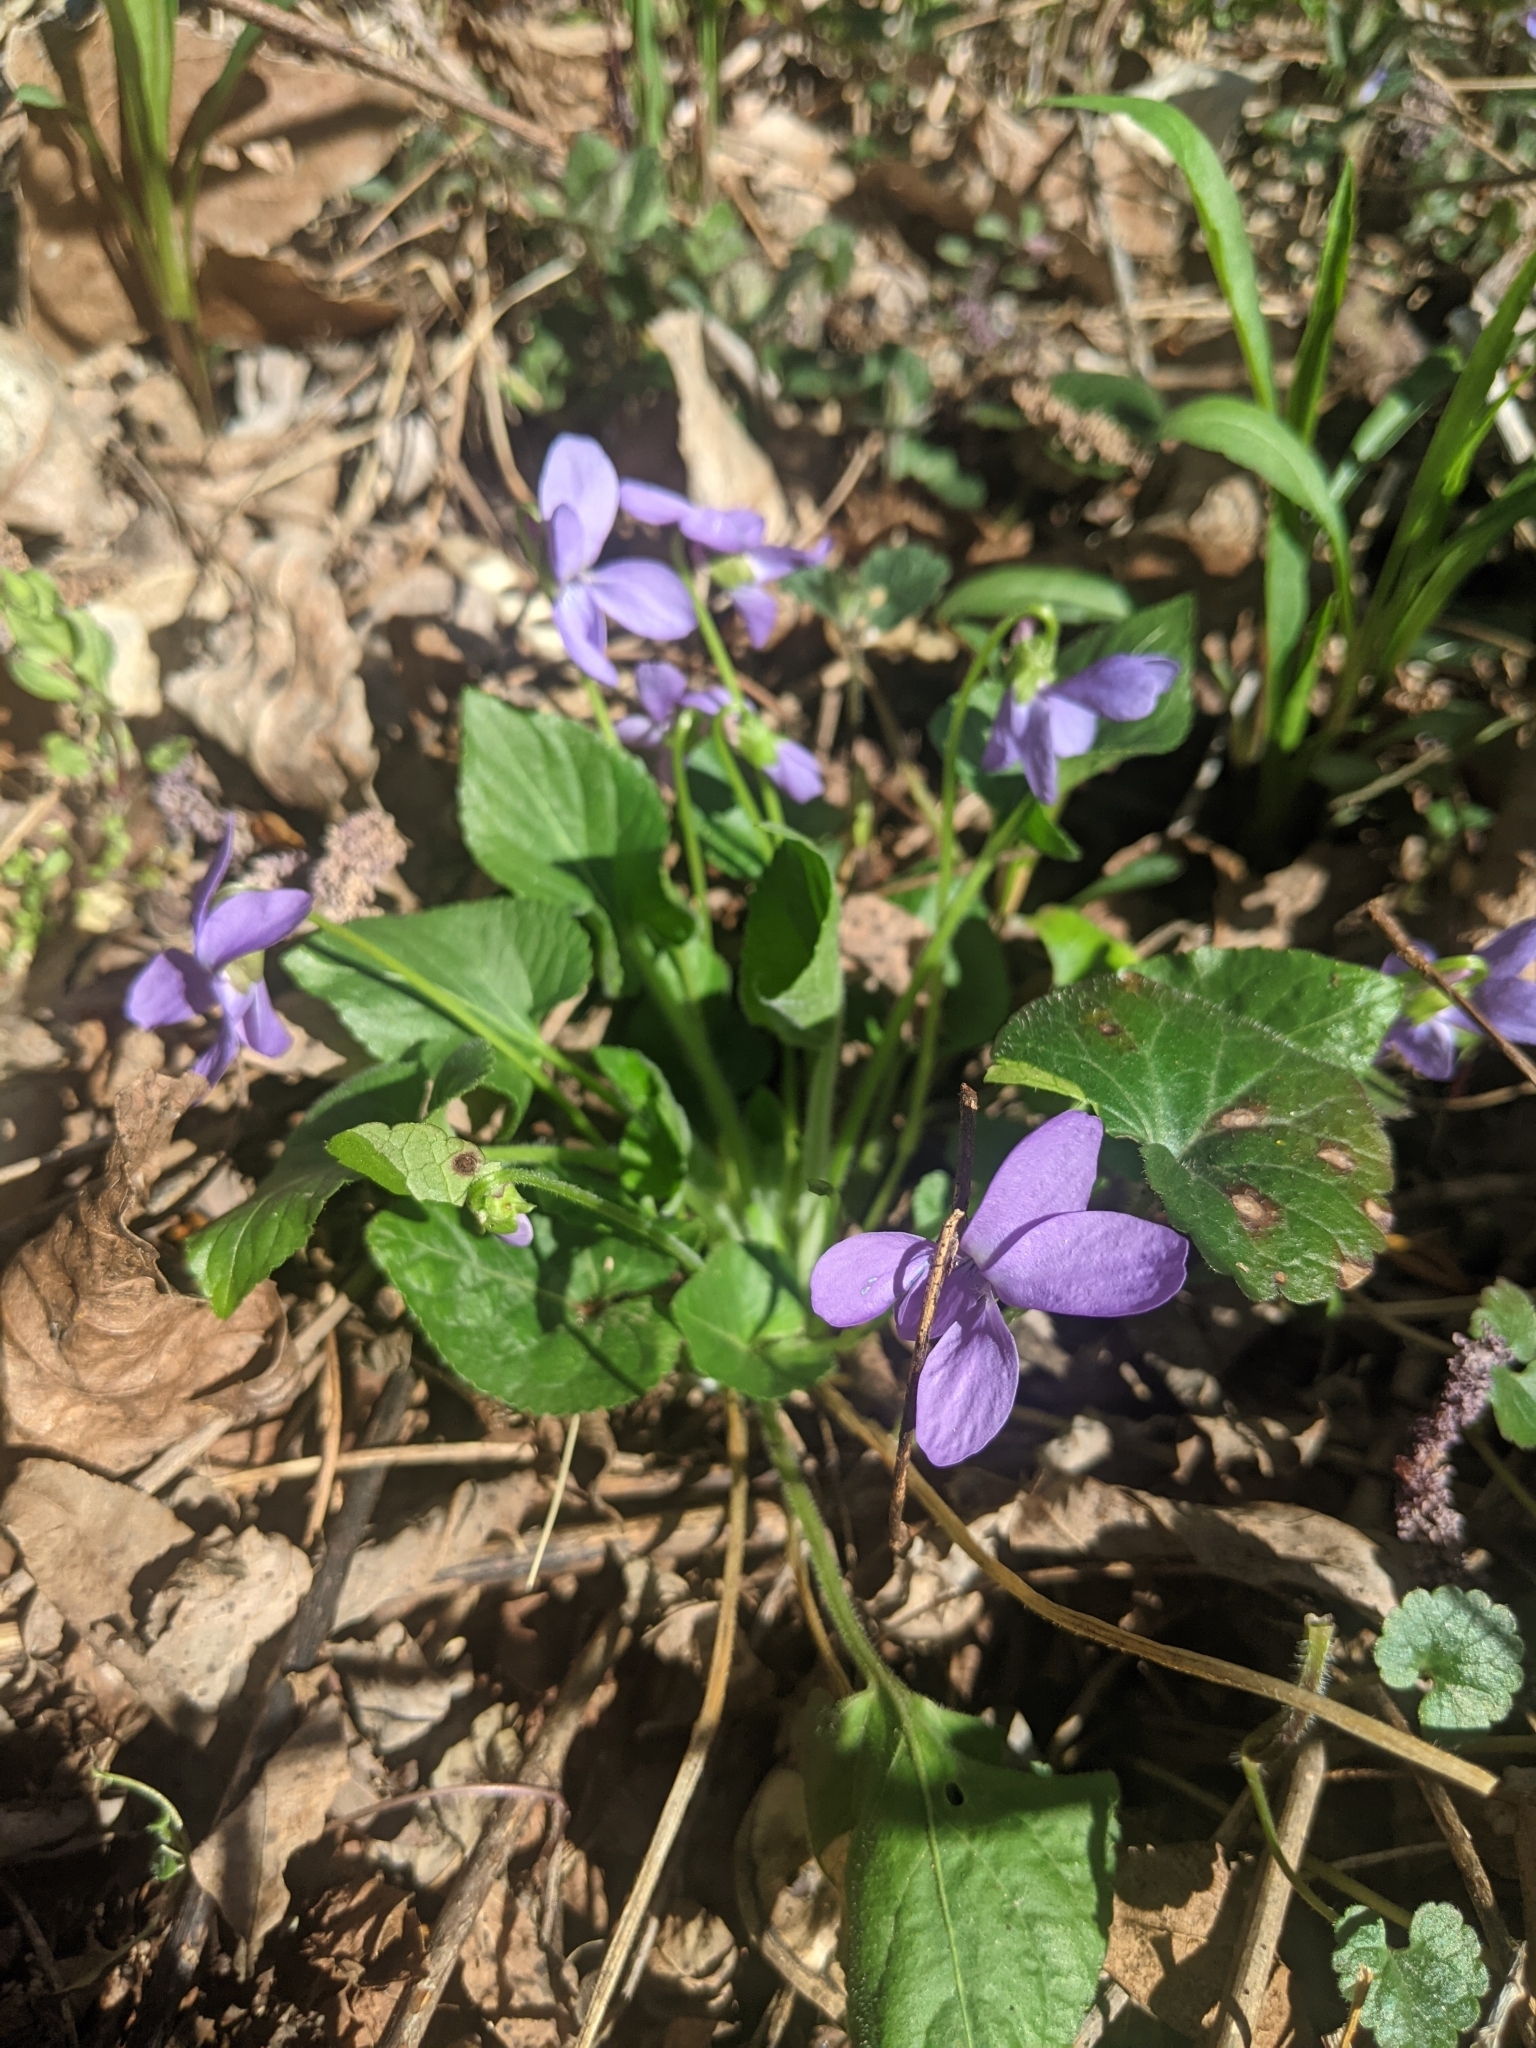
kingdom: Plantae
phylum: Tracheophyta
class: Magnoliopsida
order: Malpighiales
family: Violaceae
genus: Viola
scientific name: Viola hirta
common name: Hairy violet
